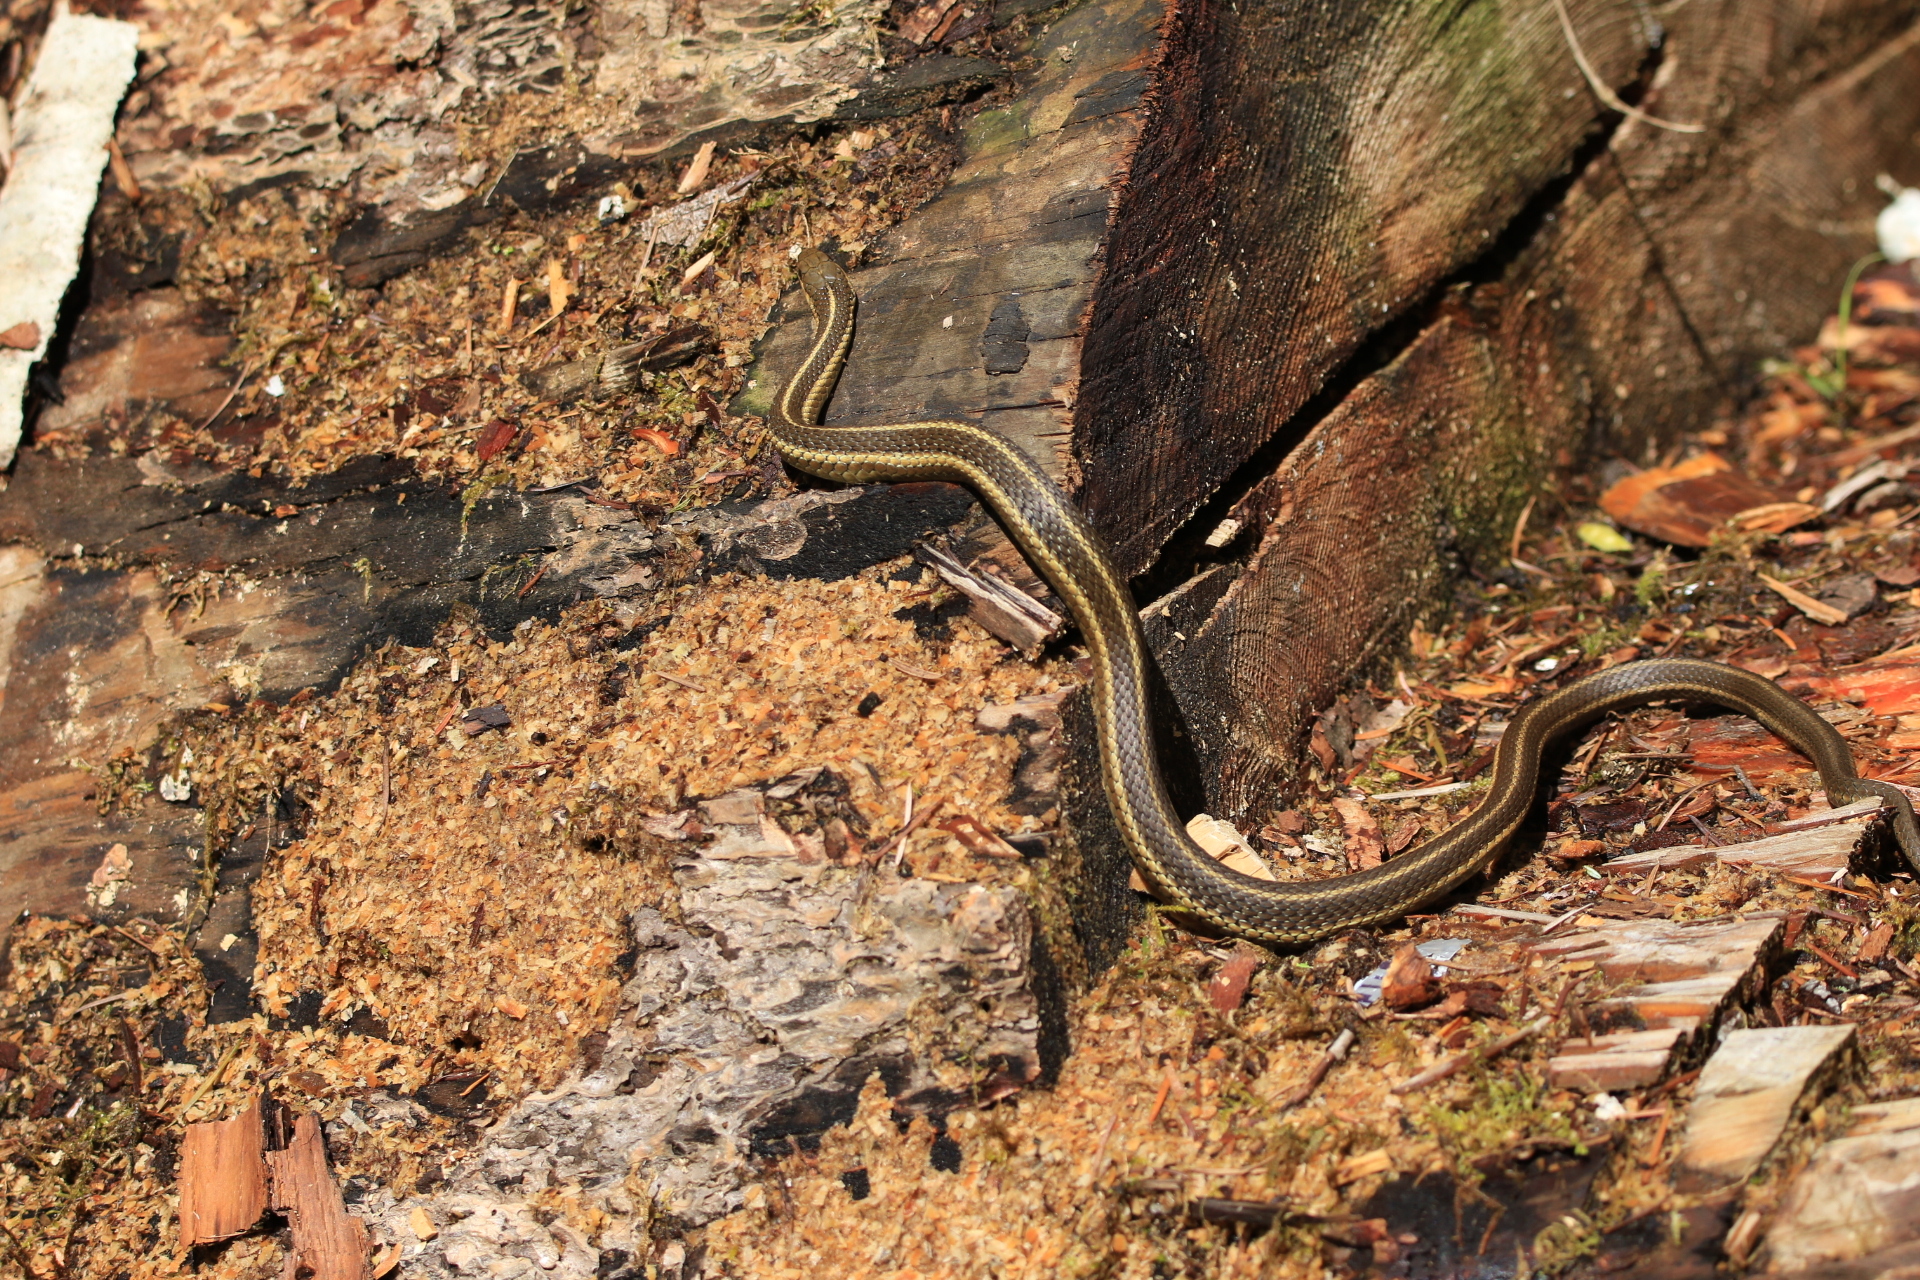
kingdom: Animalia
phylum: Chordata
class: Squamata
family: Colubridae
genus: Thamnophis
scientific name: Thamnophis ordinoides
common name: Northwestern garter snake
